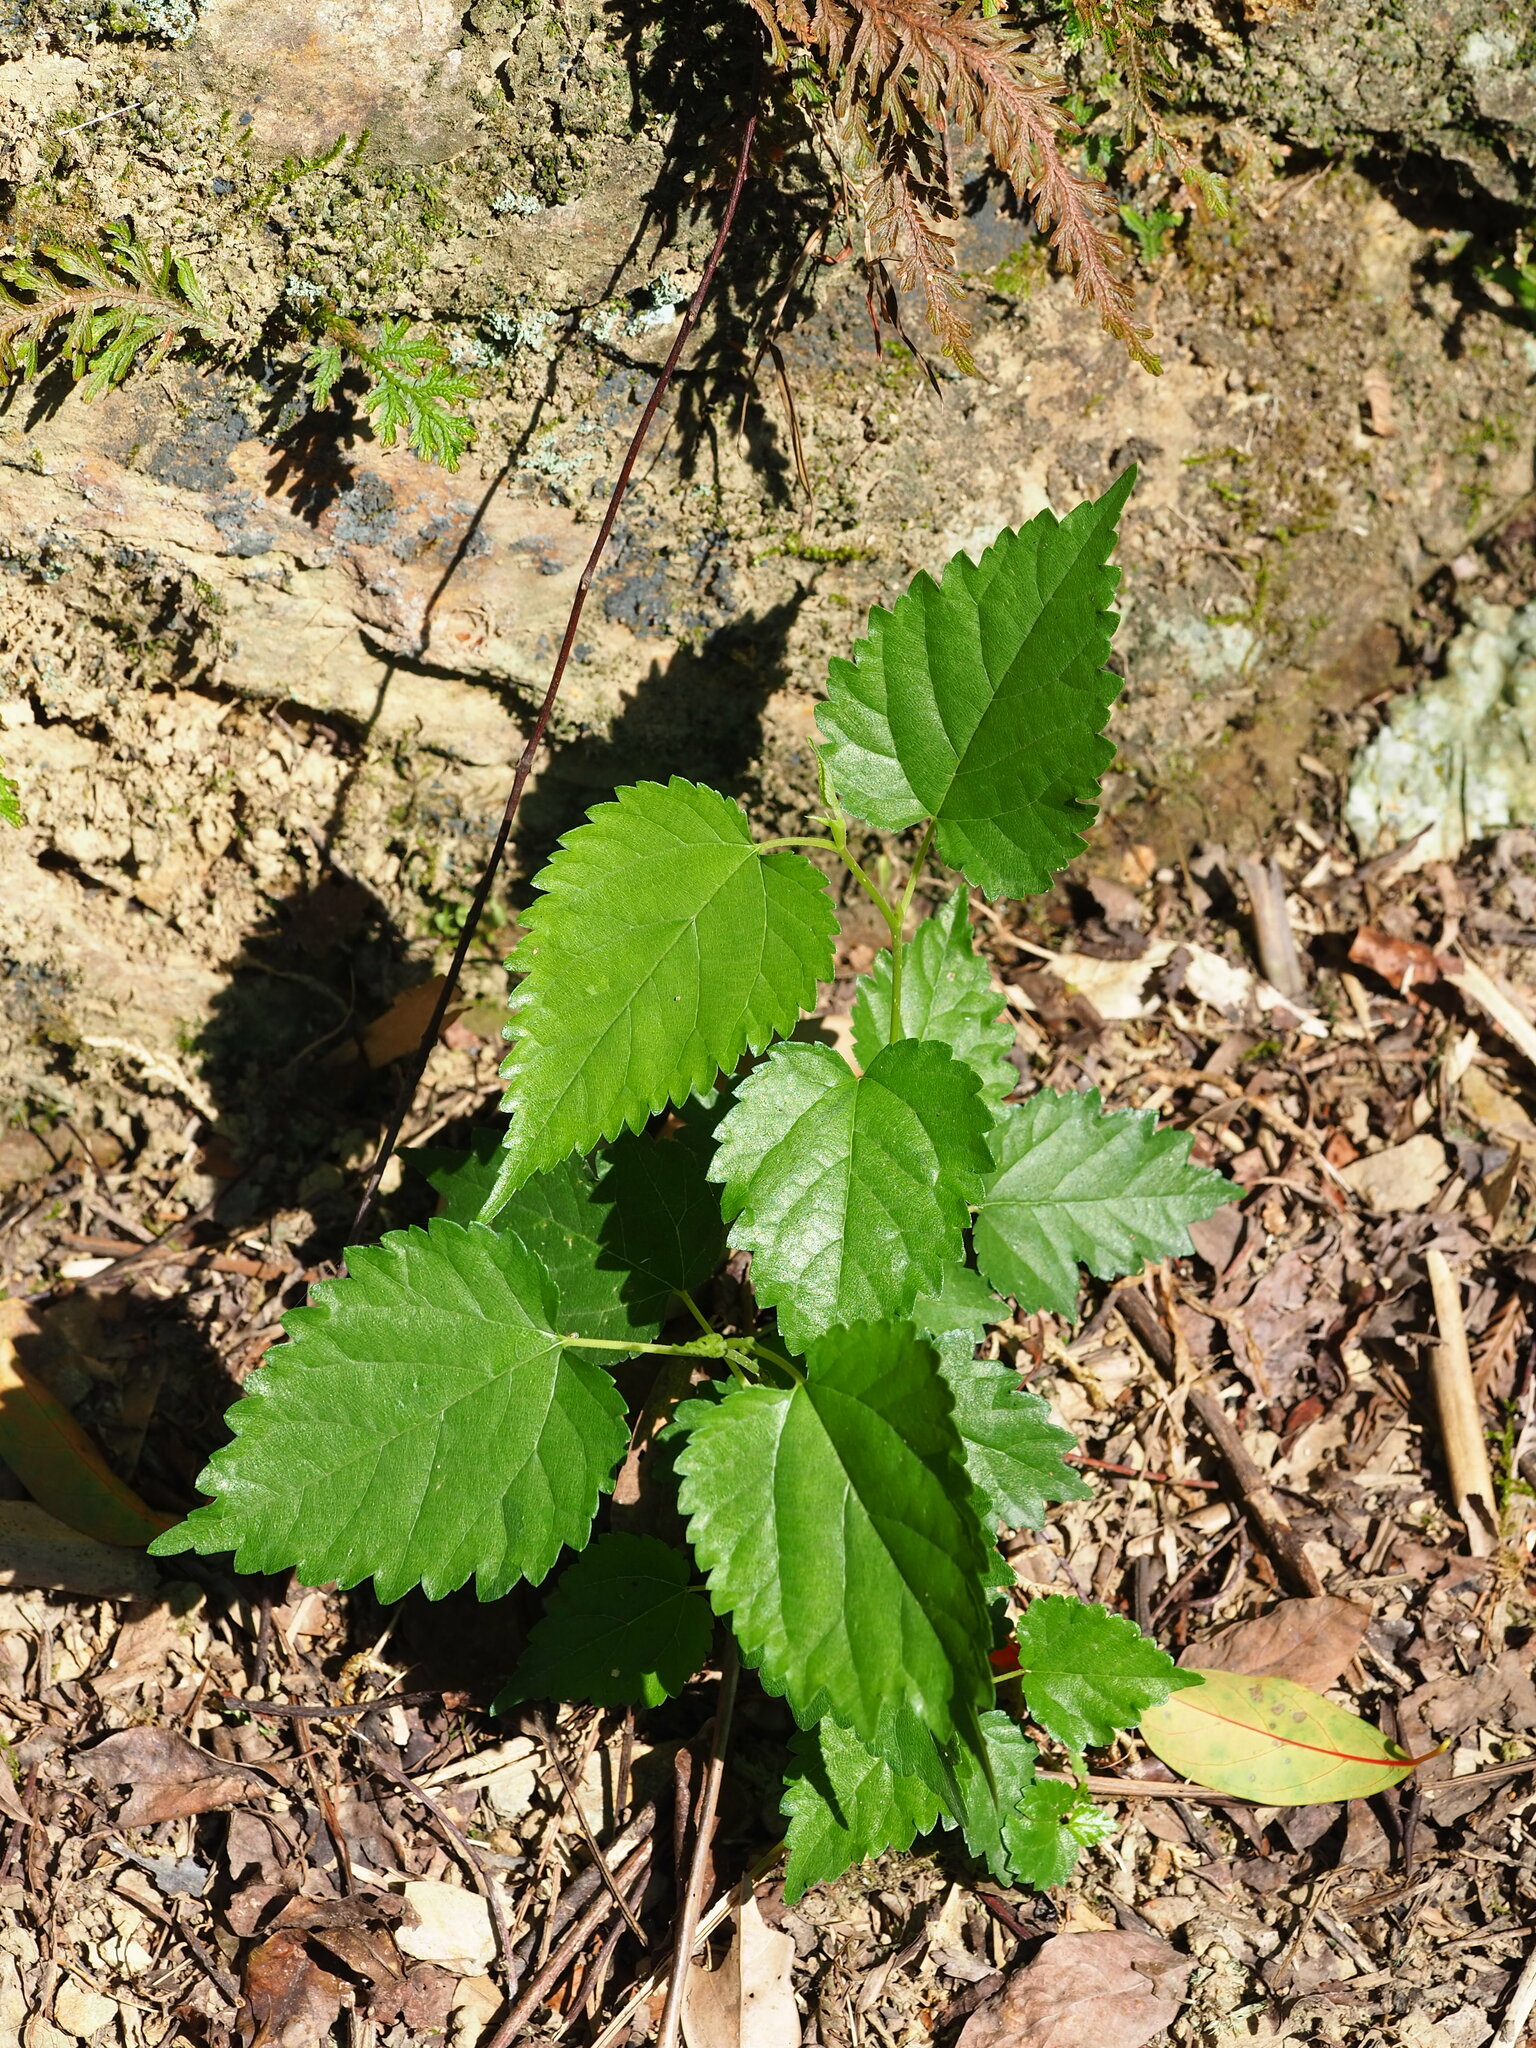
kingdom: Plantae
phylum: Tracheophyta
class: Magnoliopsida
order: Rosales
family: Moraceae
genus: Morus
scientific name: Morus indica
